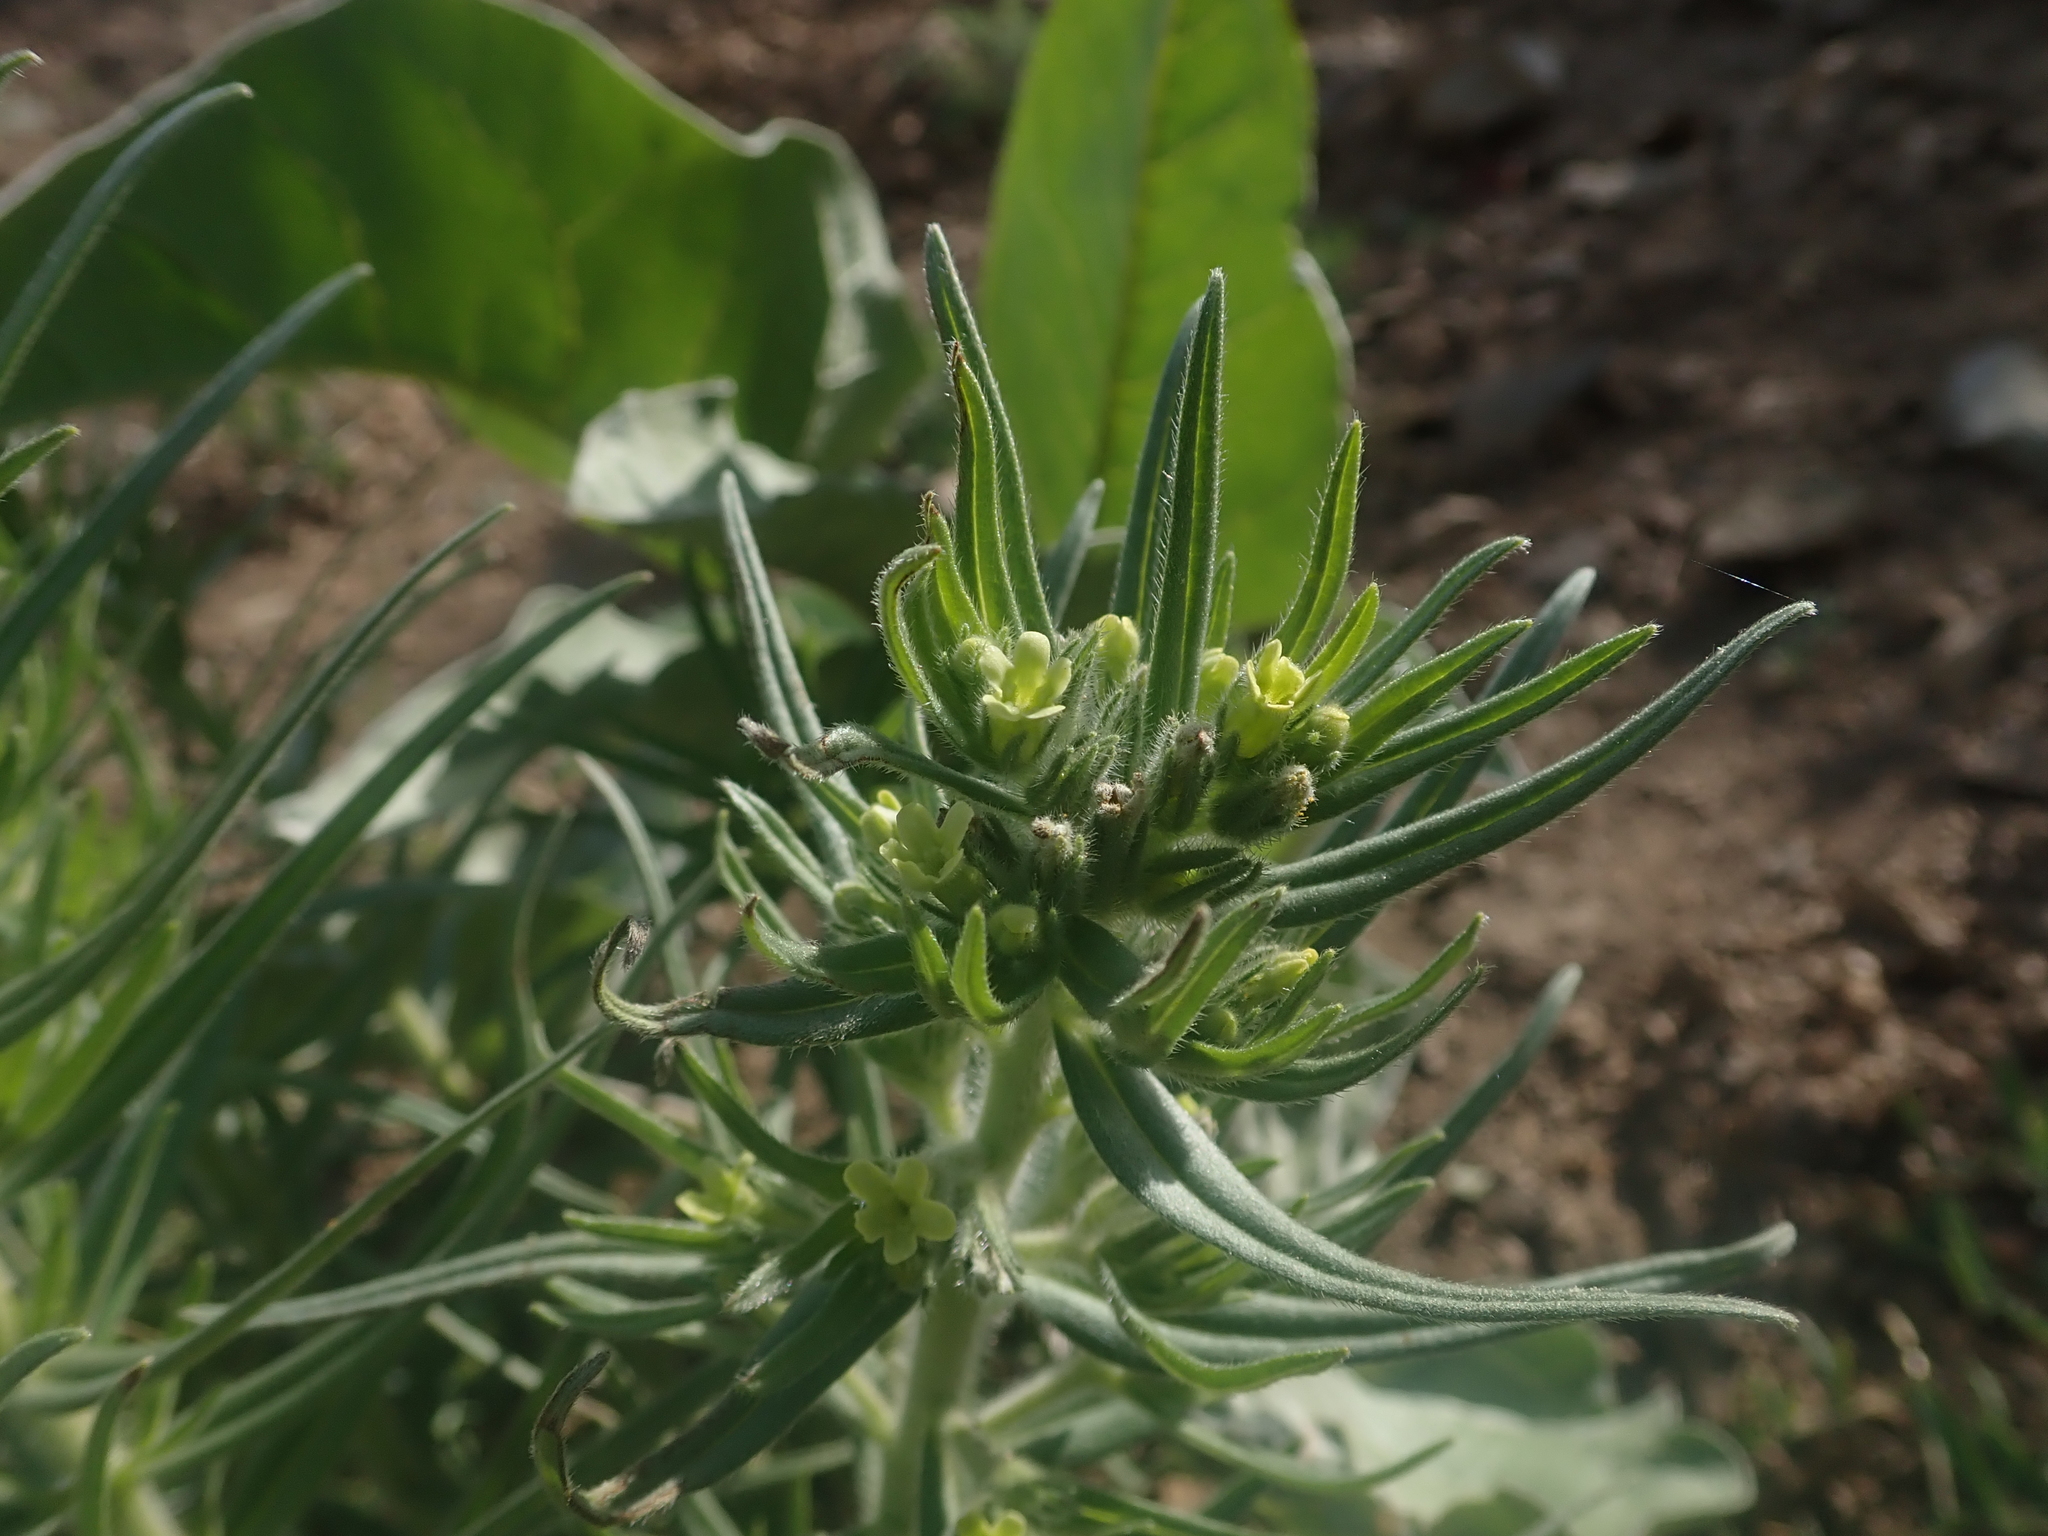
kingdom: Plantae
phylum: Tracheophyta
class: Magnoliopsida
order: Boraginales
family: Boraginaceae
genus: Lithospermum
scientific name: Lithospermum ruderale
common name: Western gromwell
